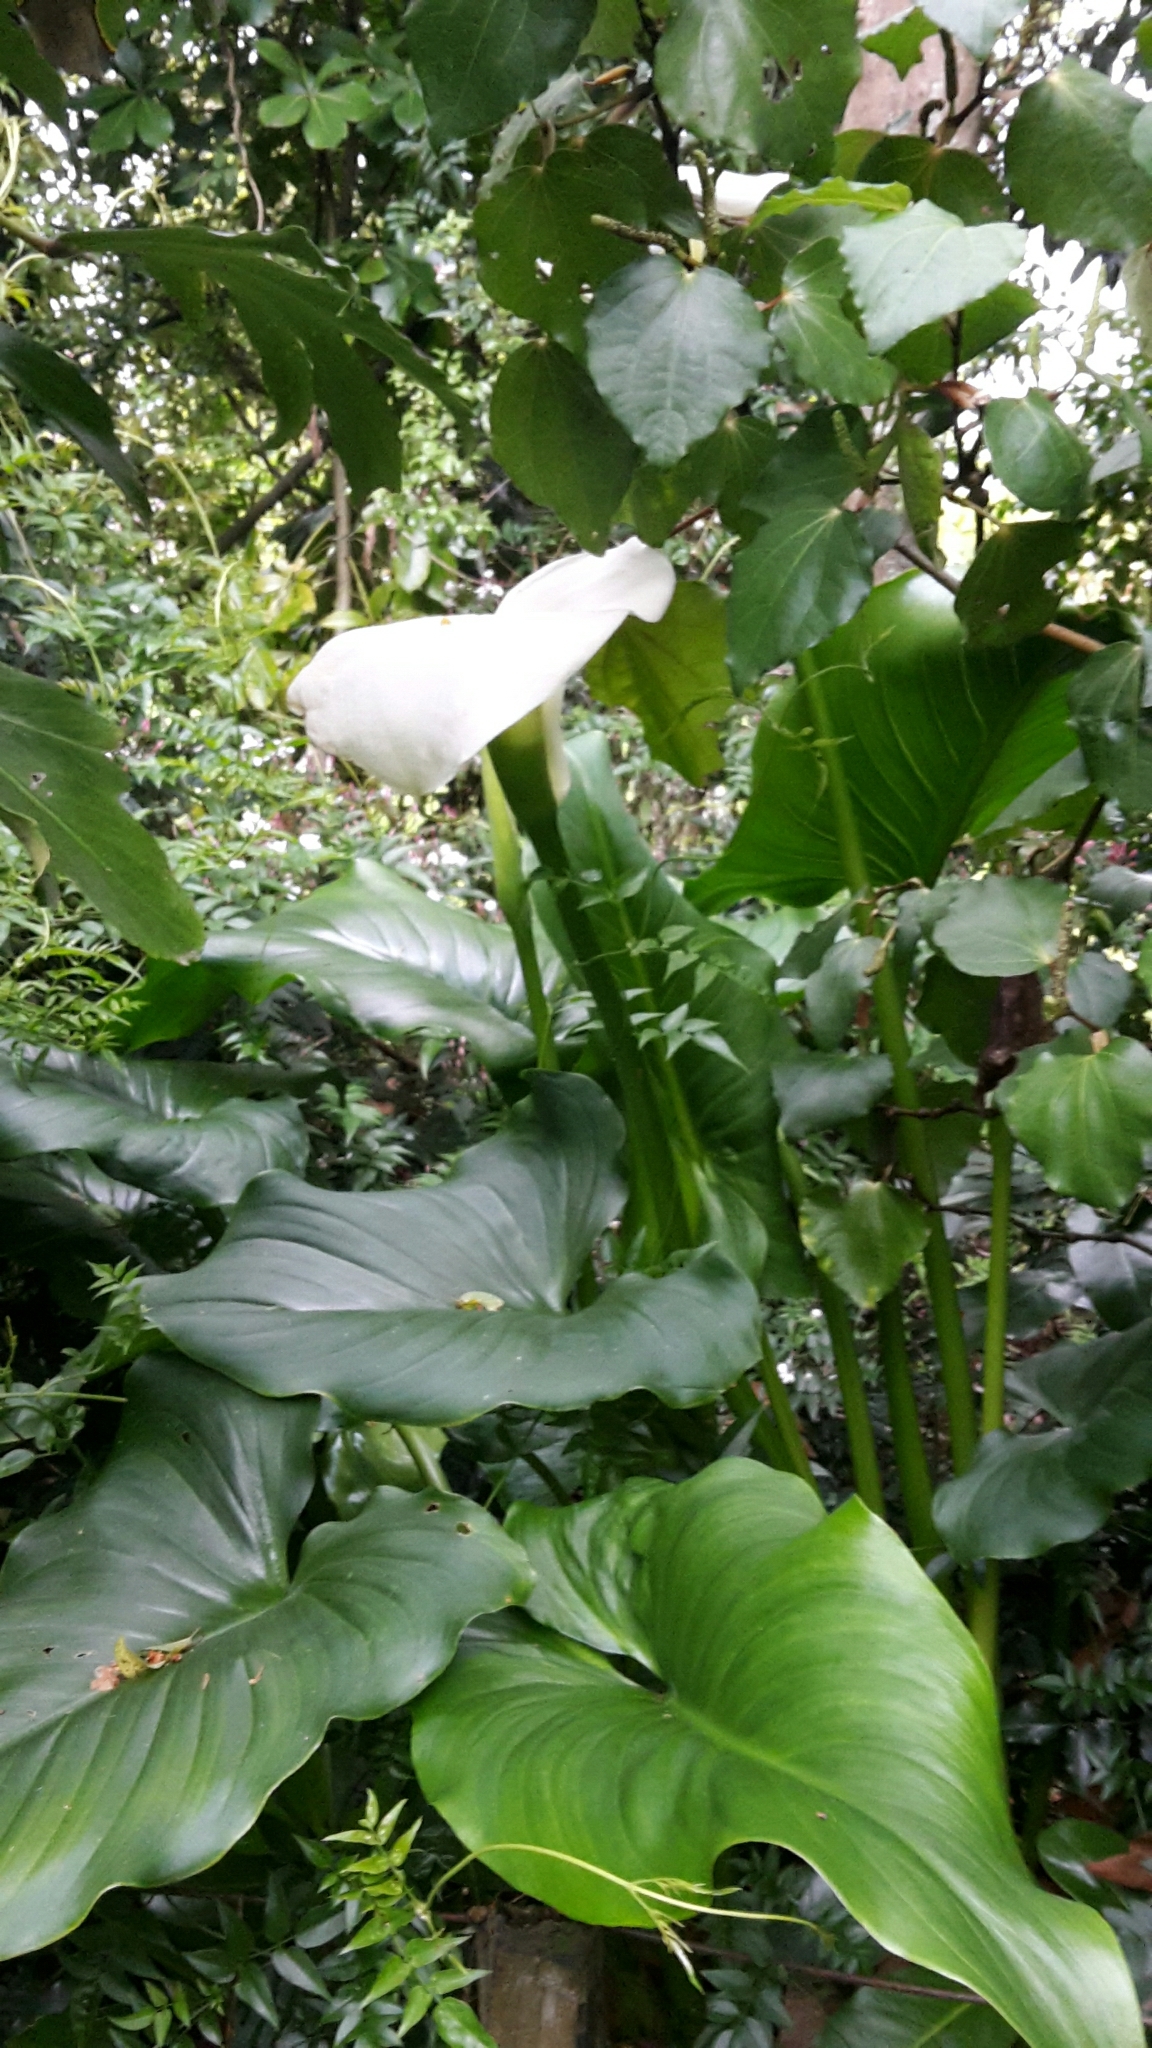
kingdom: Plantae
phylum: Tracheophyta
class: Liliopsida
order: Alismatales
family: Araceae
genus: Zantedeschia
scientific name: Zantedeschia aethiopica
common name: Altar-lily
